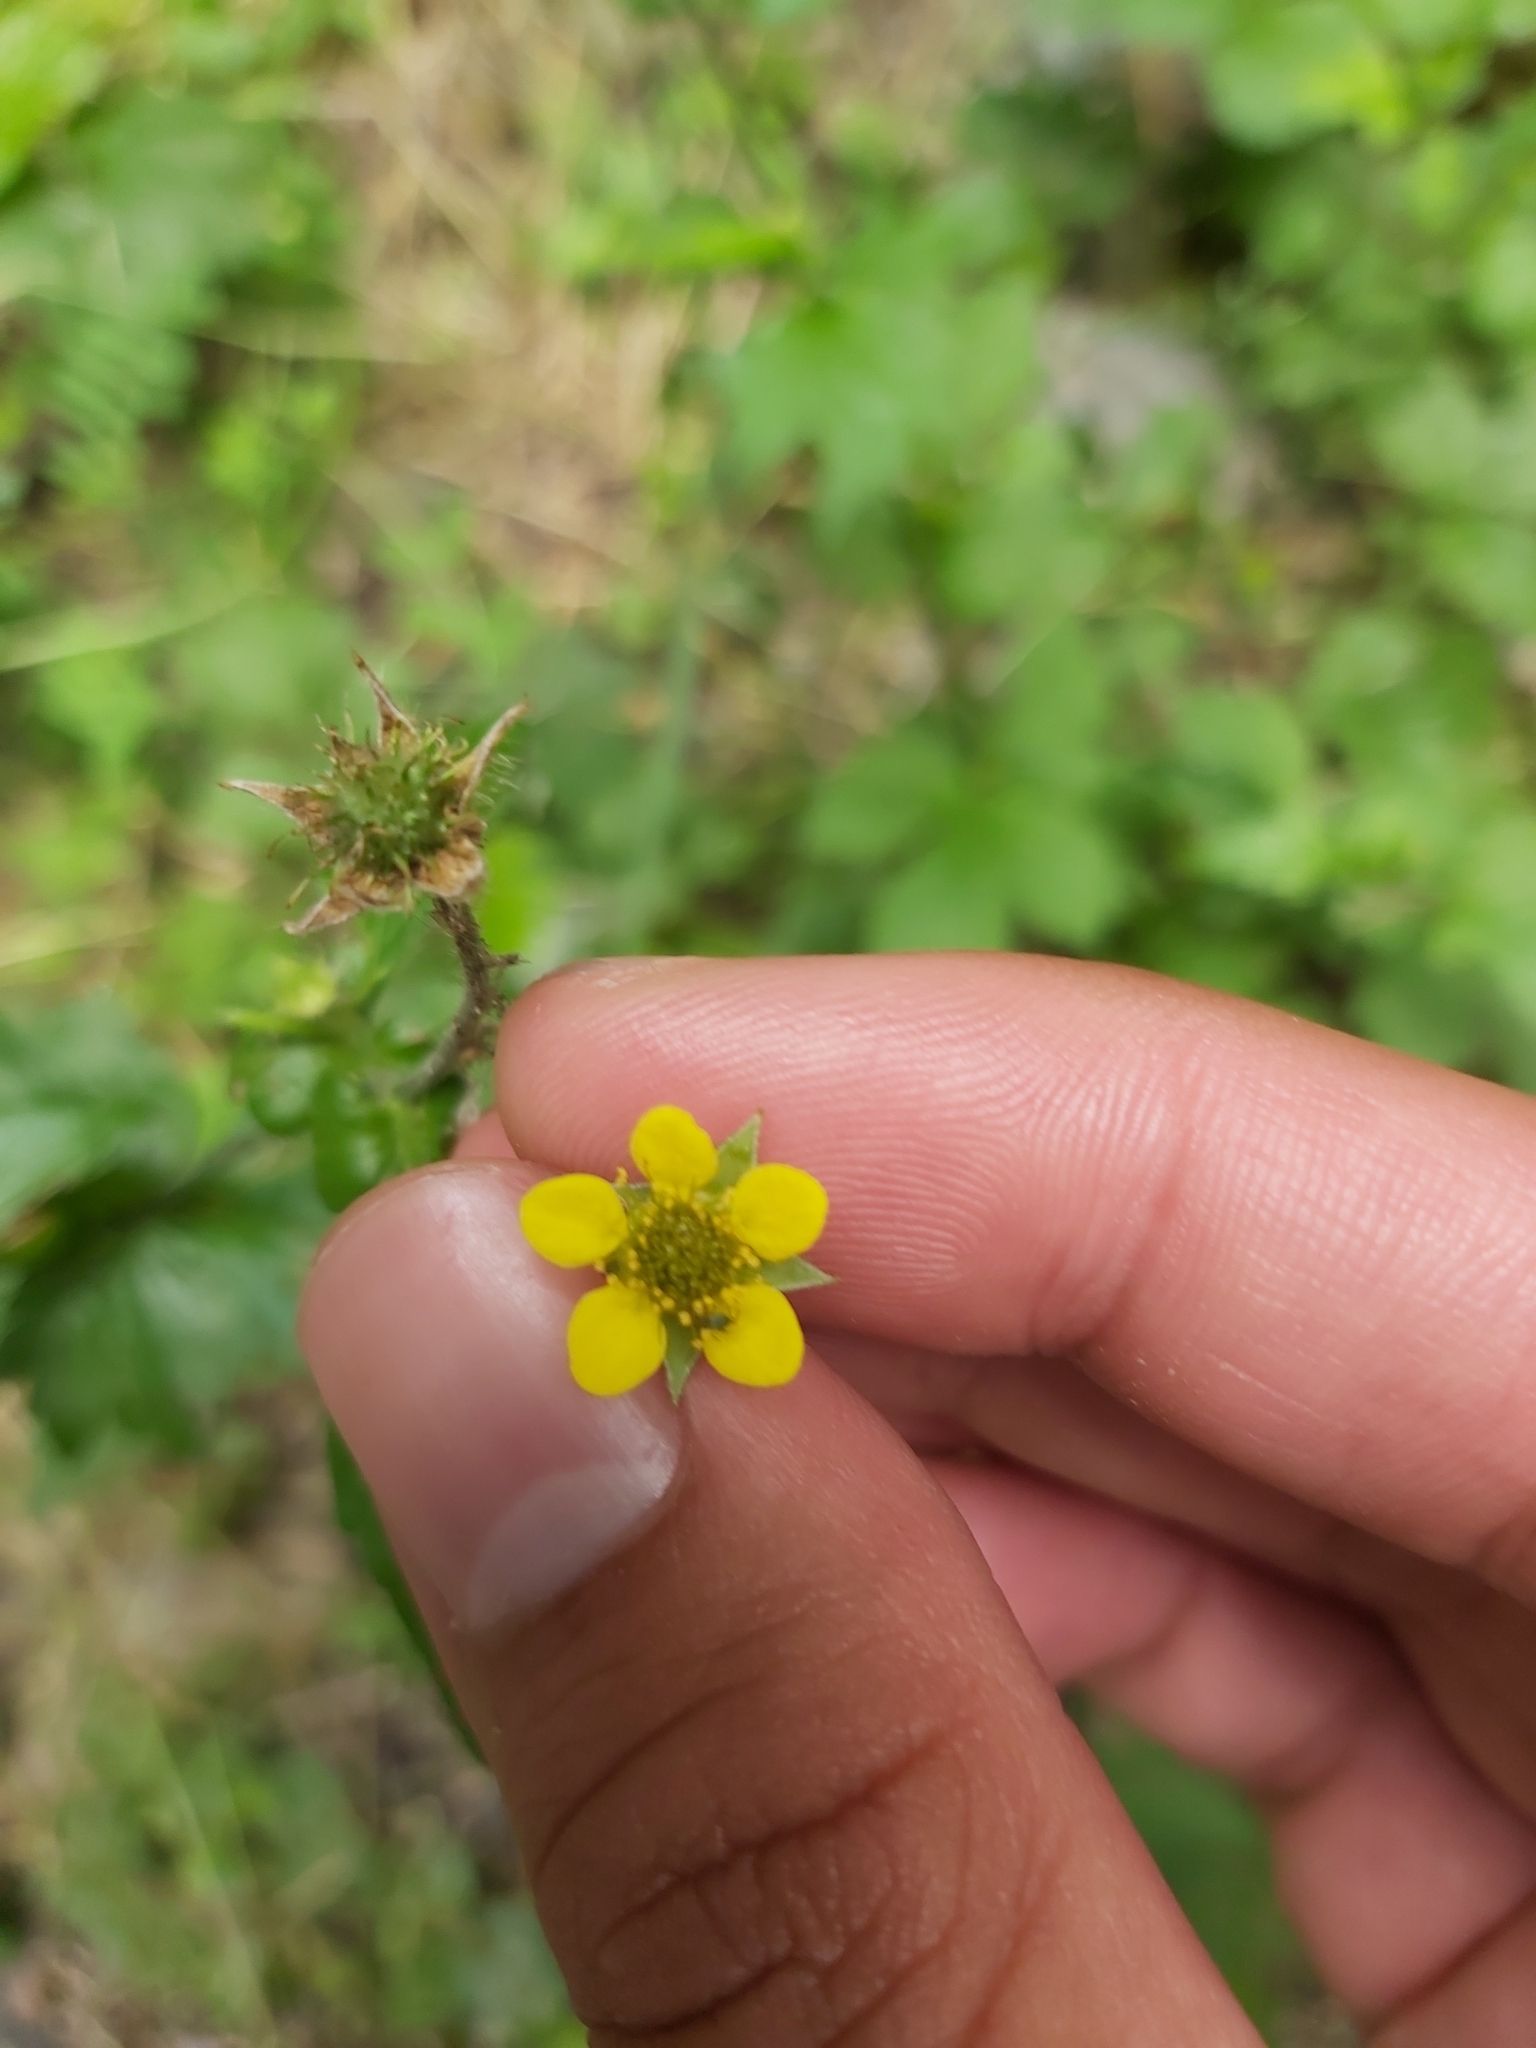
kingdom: Plantae
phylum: Tracheophyta
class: Magnoliopsida
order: Rosales
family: Rosaceae
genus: Geum
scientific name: Geum urbanum
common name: Wood avens
